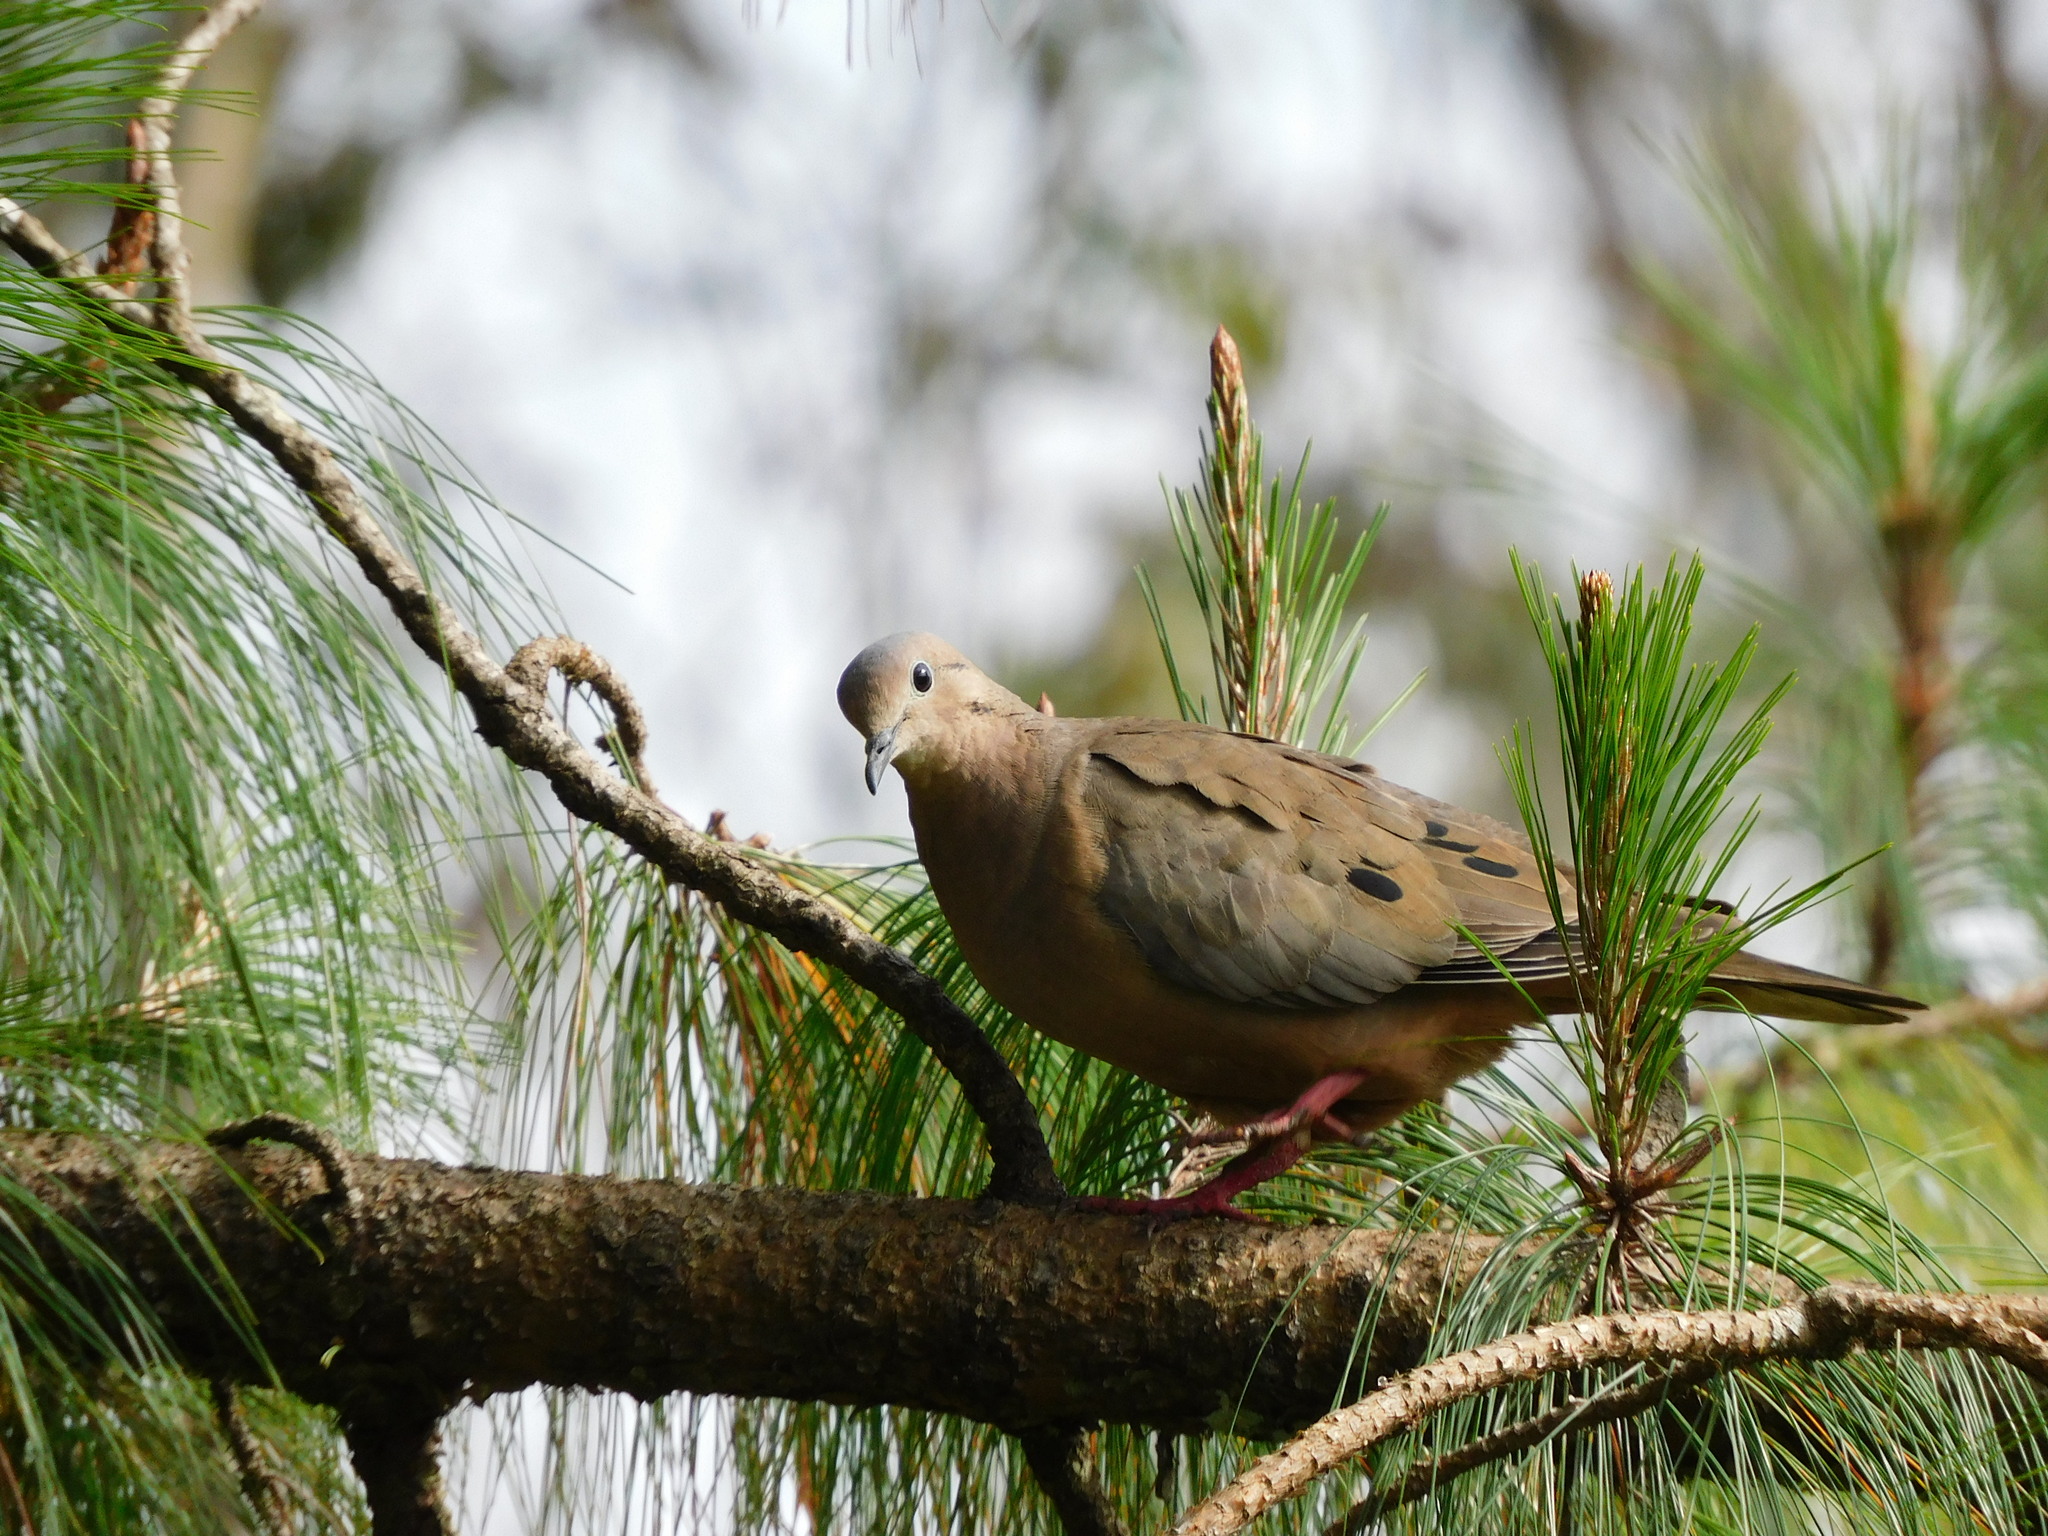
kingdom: Animalia
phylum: Chordata
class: Aves
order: Columbiformes
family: Columbidae
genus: Zenaida
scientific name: Zenaida auriculata
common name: Eared dove
